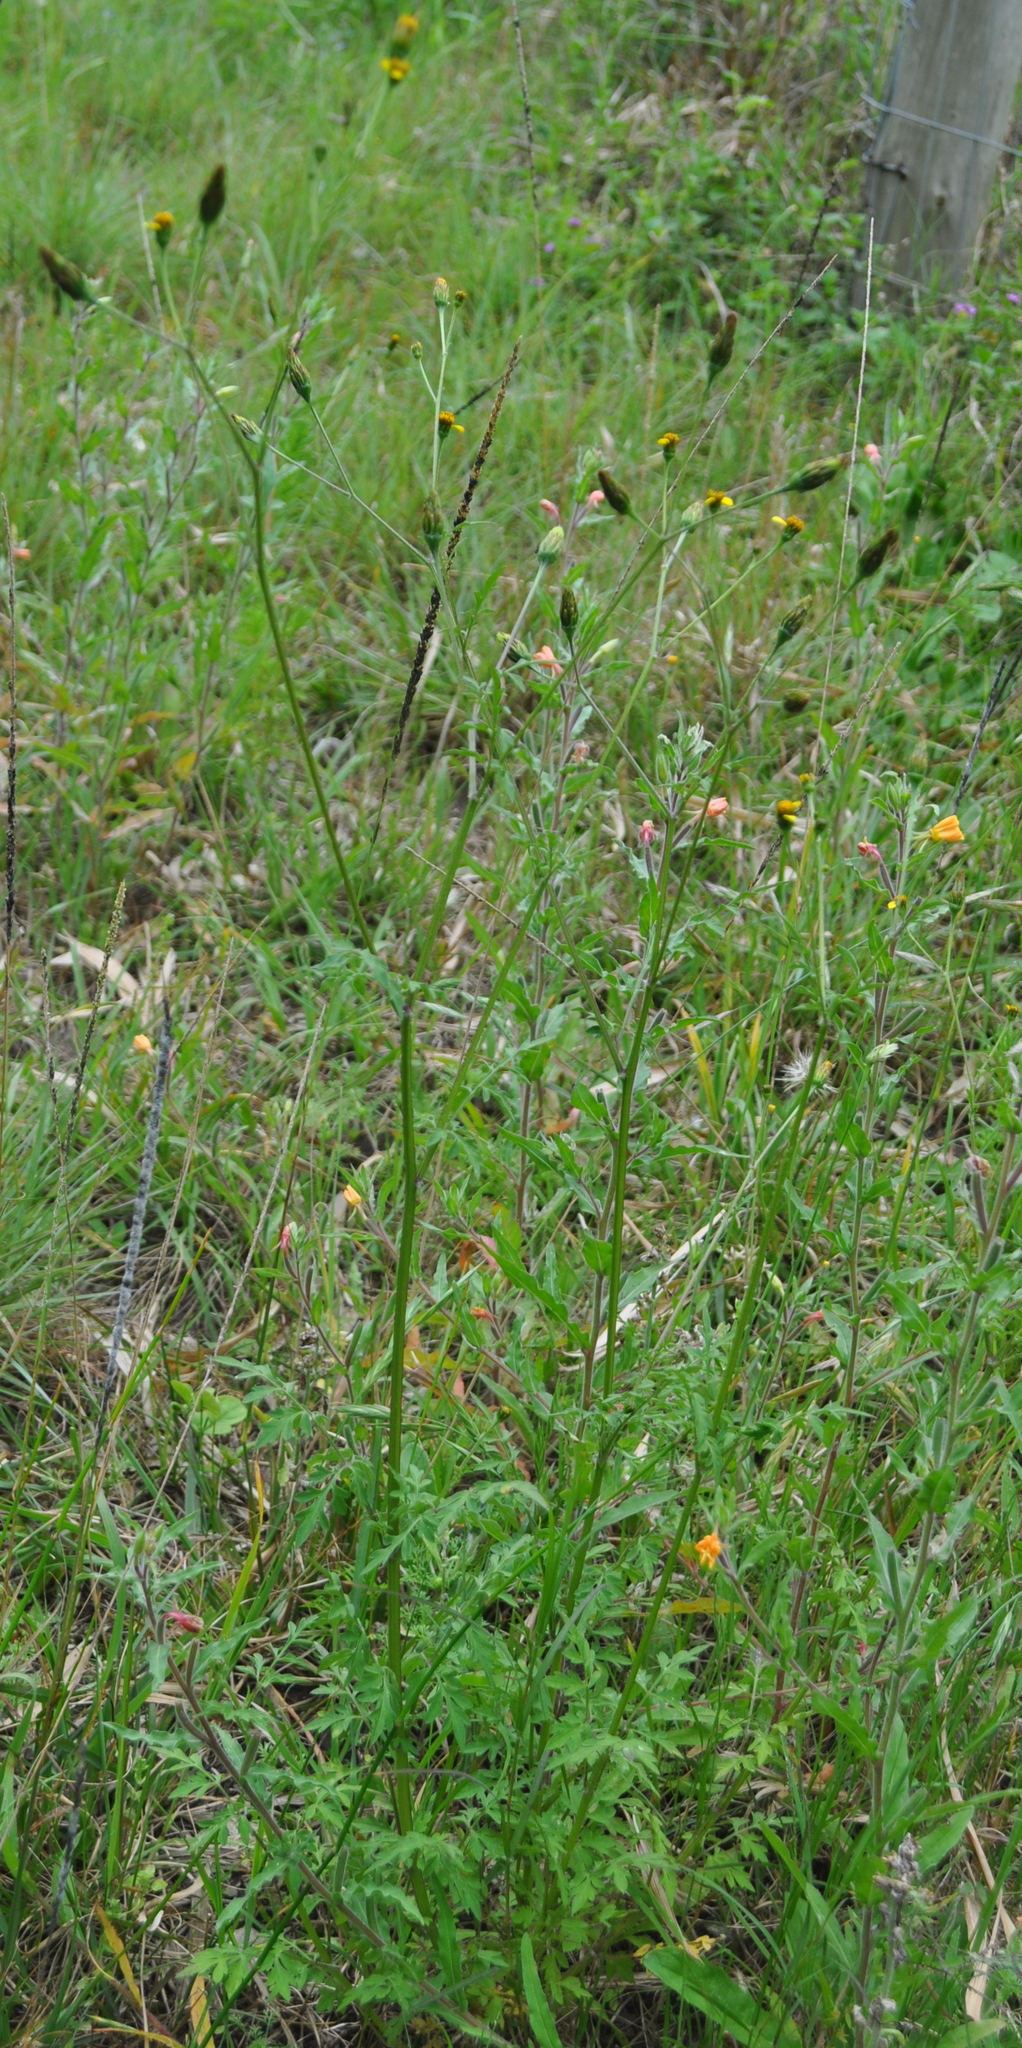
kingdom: Plantae
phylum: Tracheophyta
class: Magnoliopsida
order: Asterales
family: Asteraceae
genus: Bidens
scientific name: Bidens subalternans
